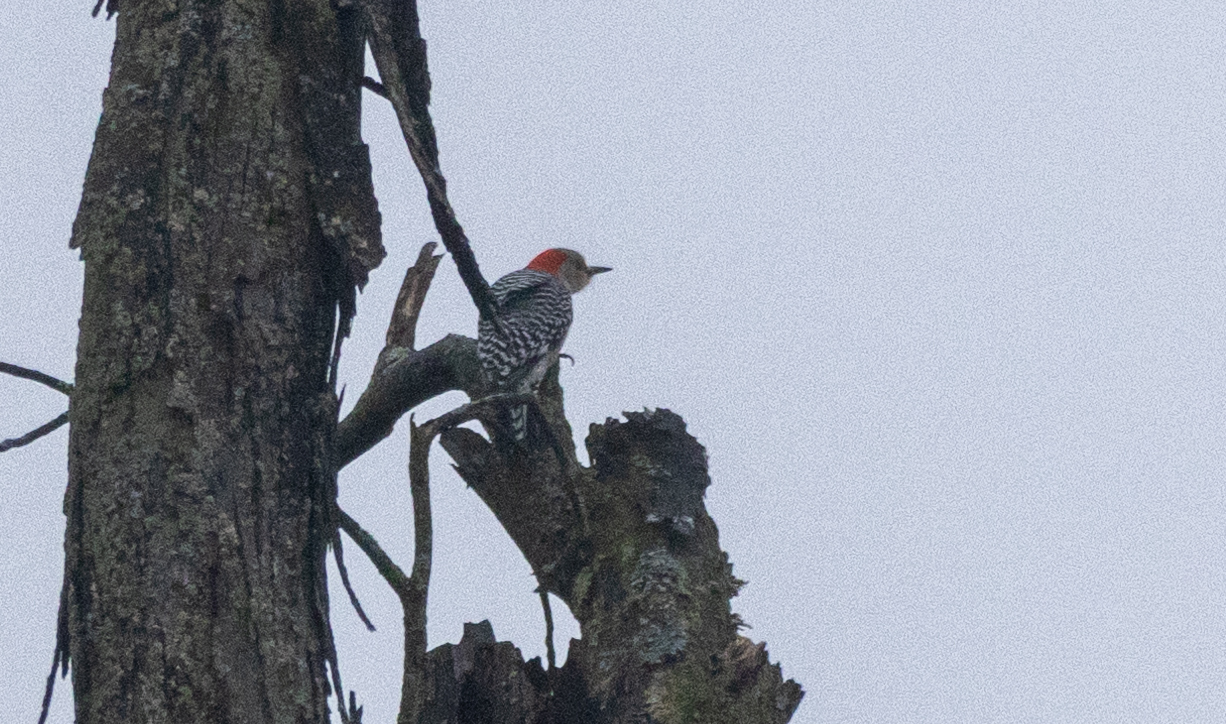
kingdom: Animalia
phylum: Chordata
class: Aves
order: Piciformes
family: Picidae
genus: Melanerpes
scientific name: Melanerpes carolinus
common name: Red-bellied woodpecker
